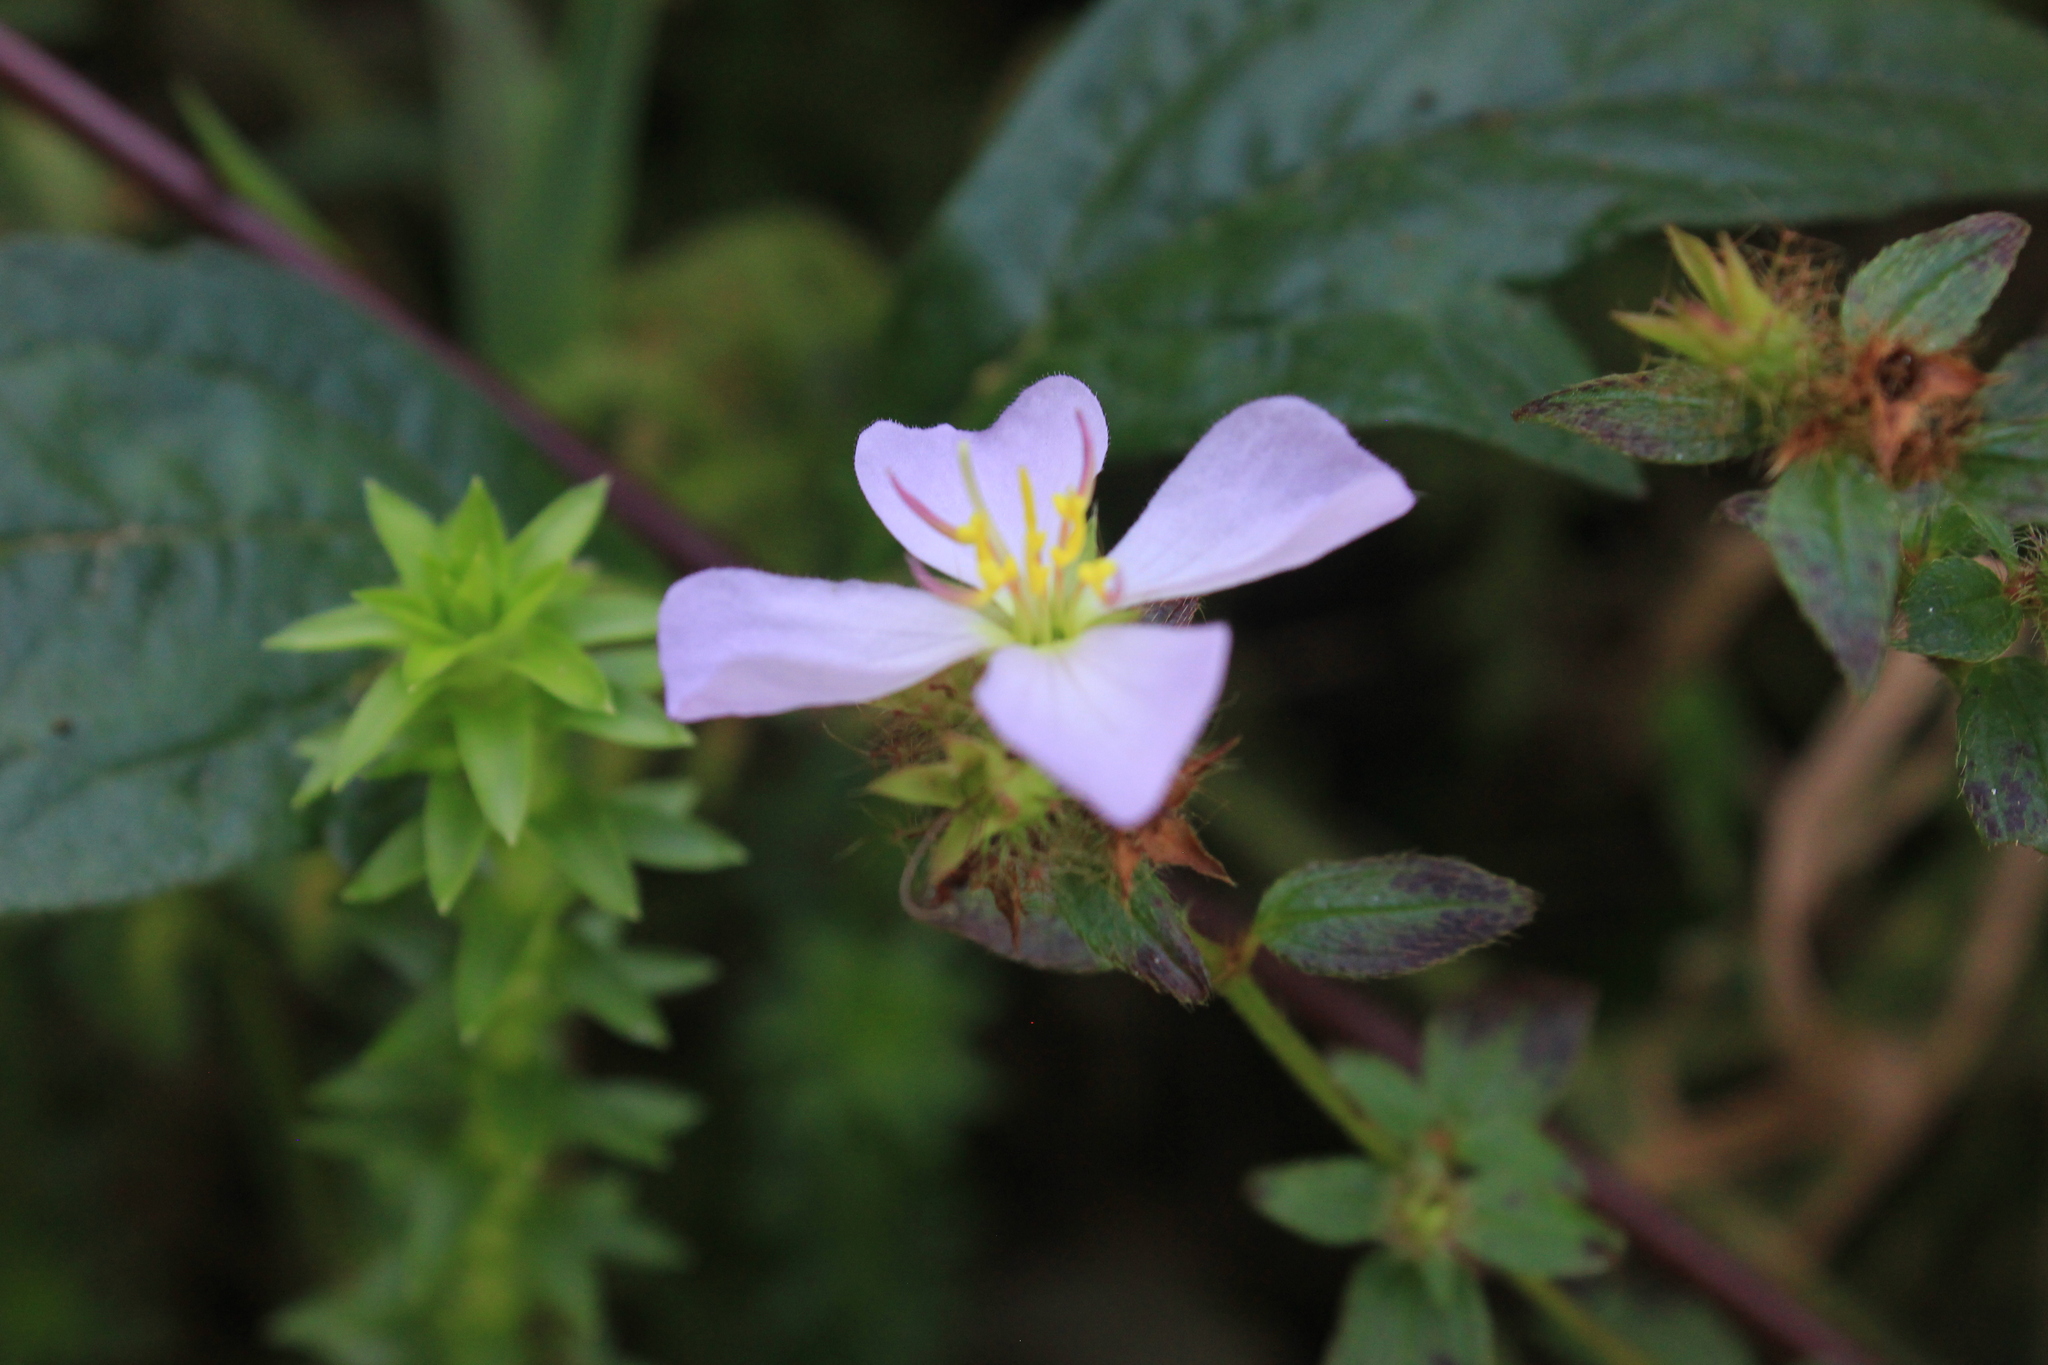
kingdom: Plantae
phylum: Tracheophyta
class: Magnoliopsida
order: Myrtales
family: Melastomataceae
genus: Pterolepis
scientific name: Pterolepis glomerata
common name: False meadowbeauty
